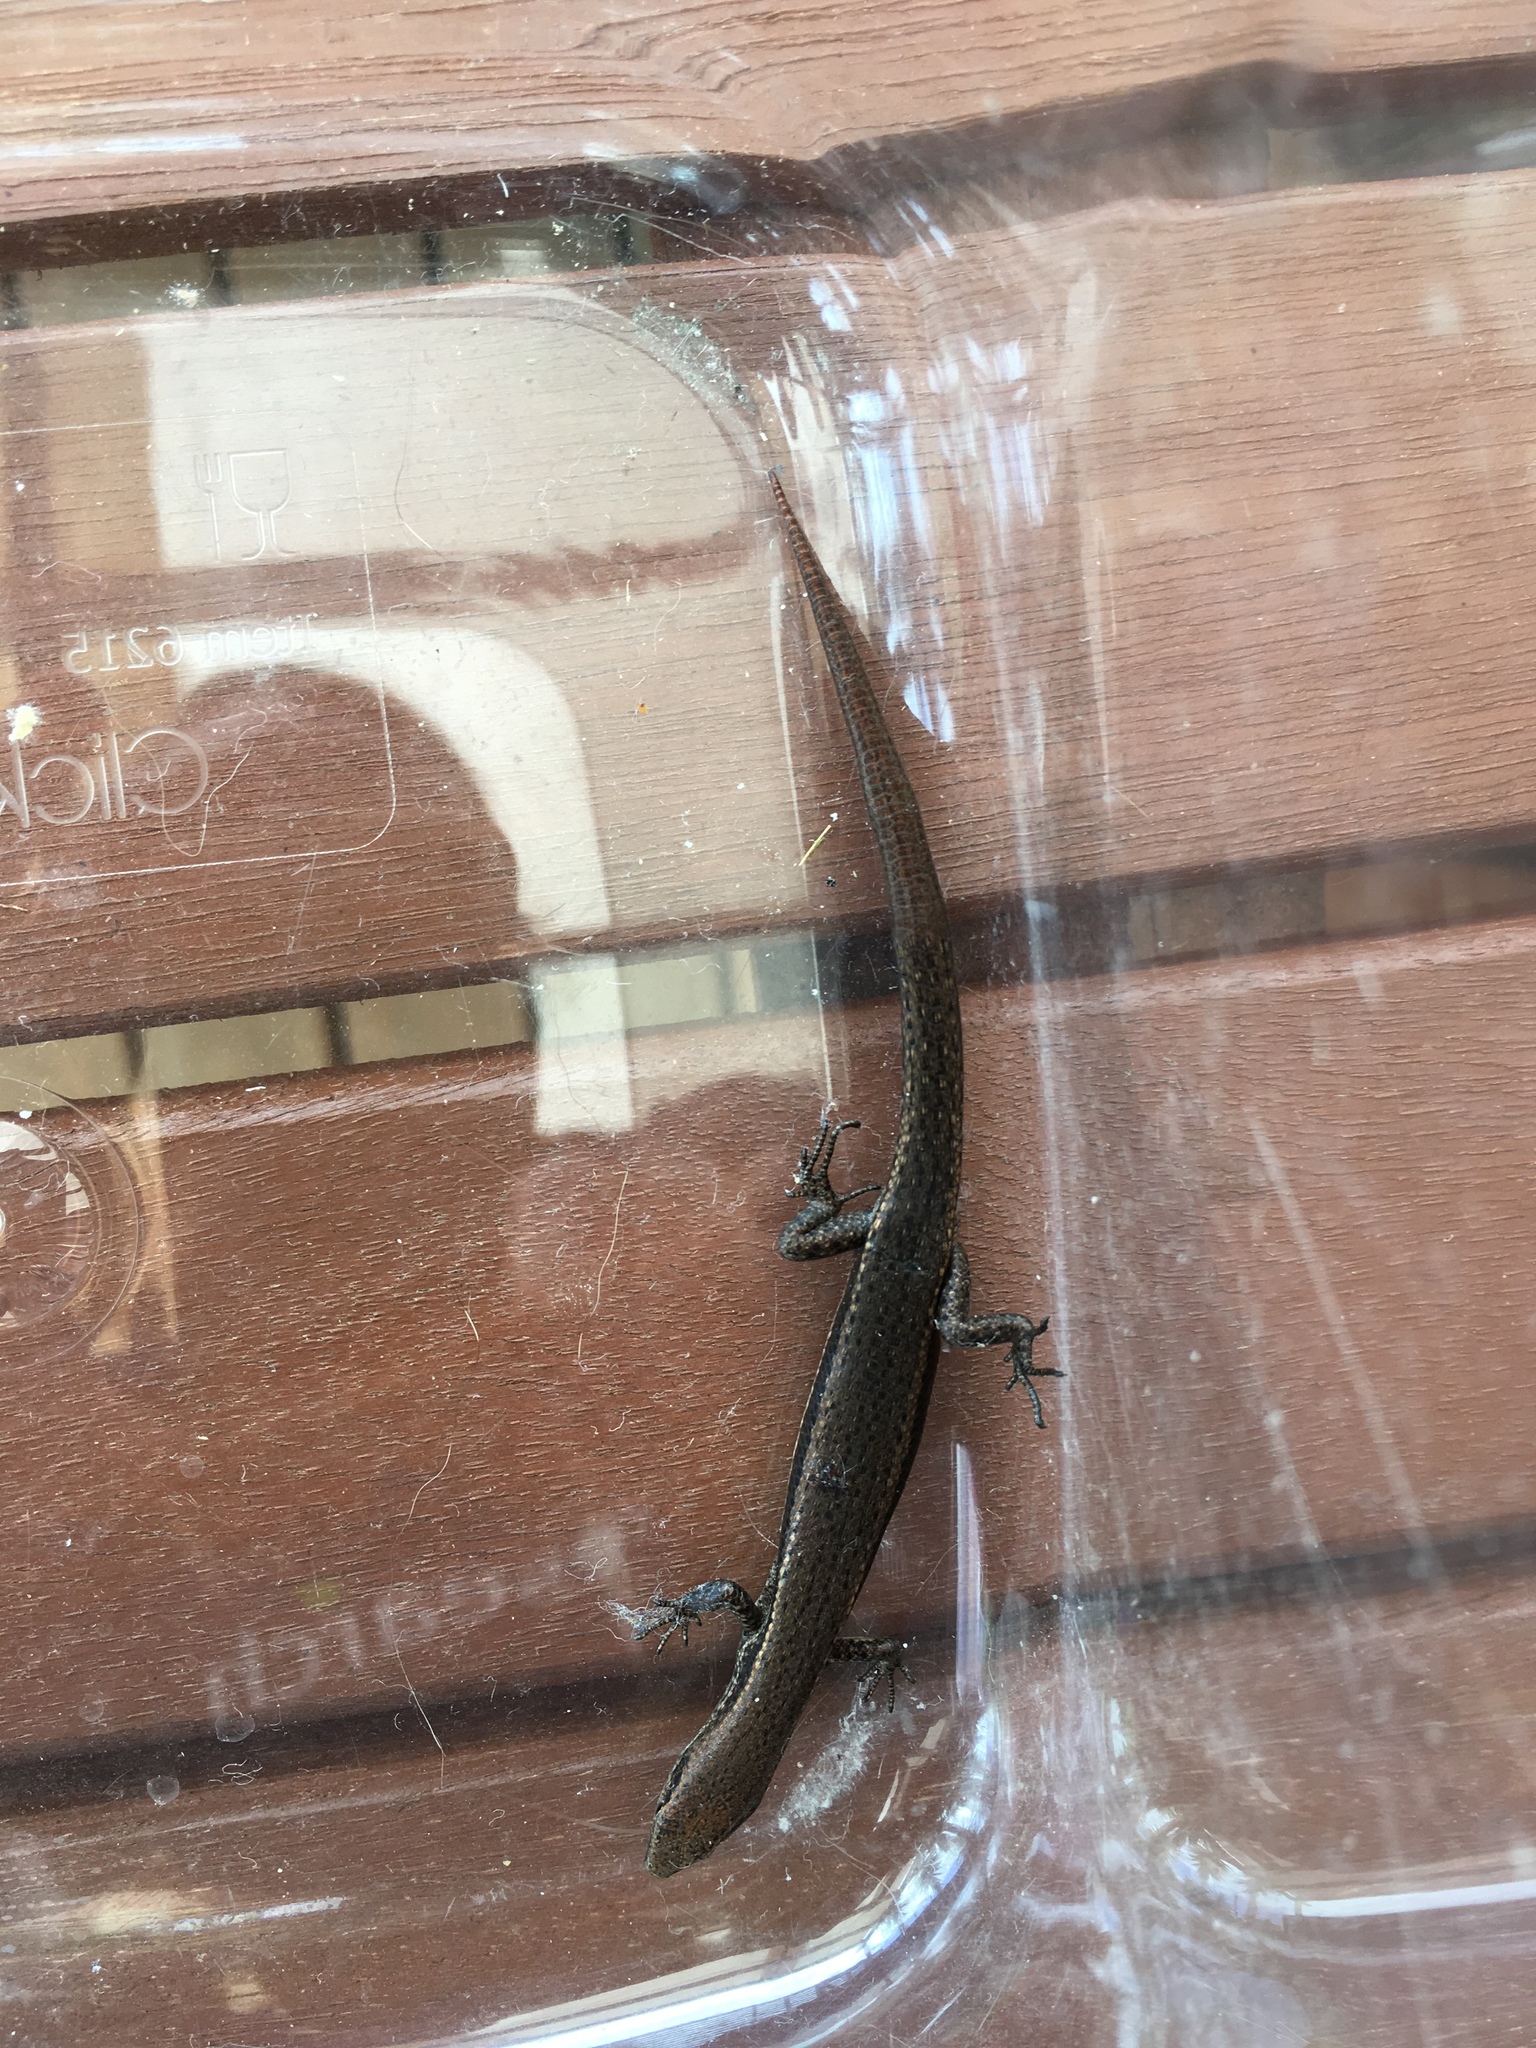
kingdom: Animalia
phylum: Chordata
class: Squamata
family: Scincidae
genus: Lampropholis
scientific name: Lampropholis delicata
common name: Plague skink
